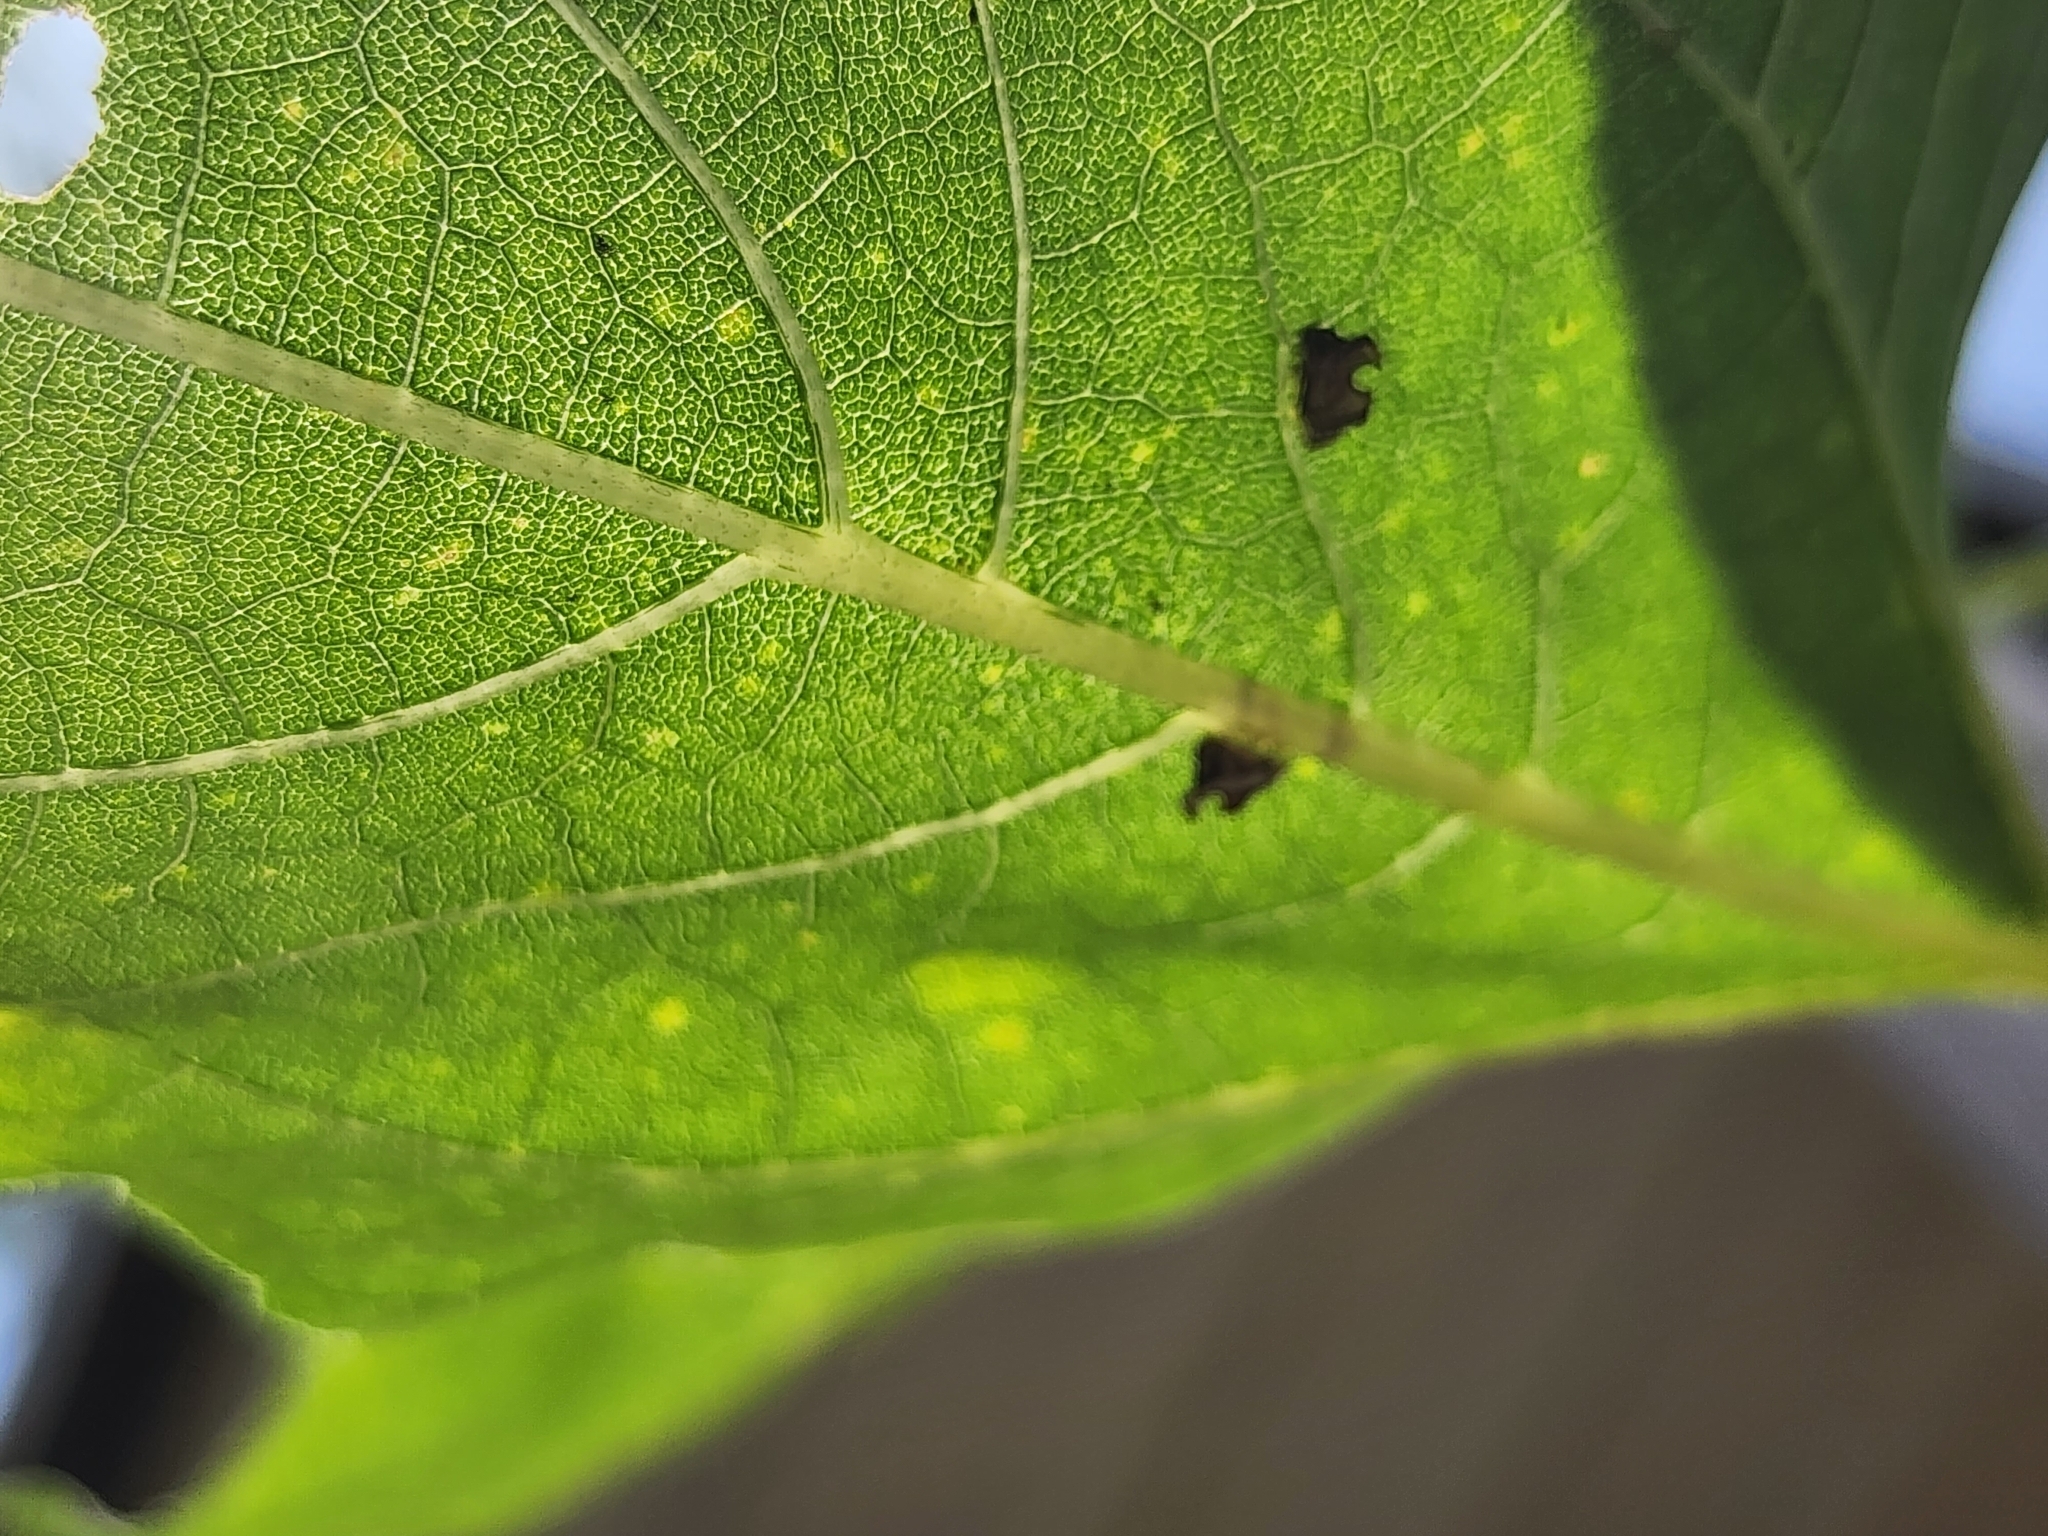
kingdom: Animalia
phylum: Arthropoda
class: Insecta
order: Hemiptera
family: Membracidae
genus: Entylia
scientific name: Entylia carinata
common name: Keeled treehopper
